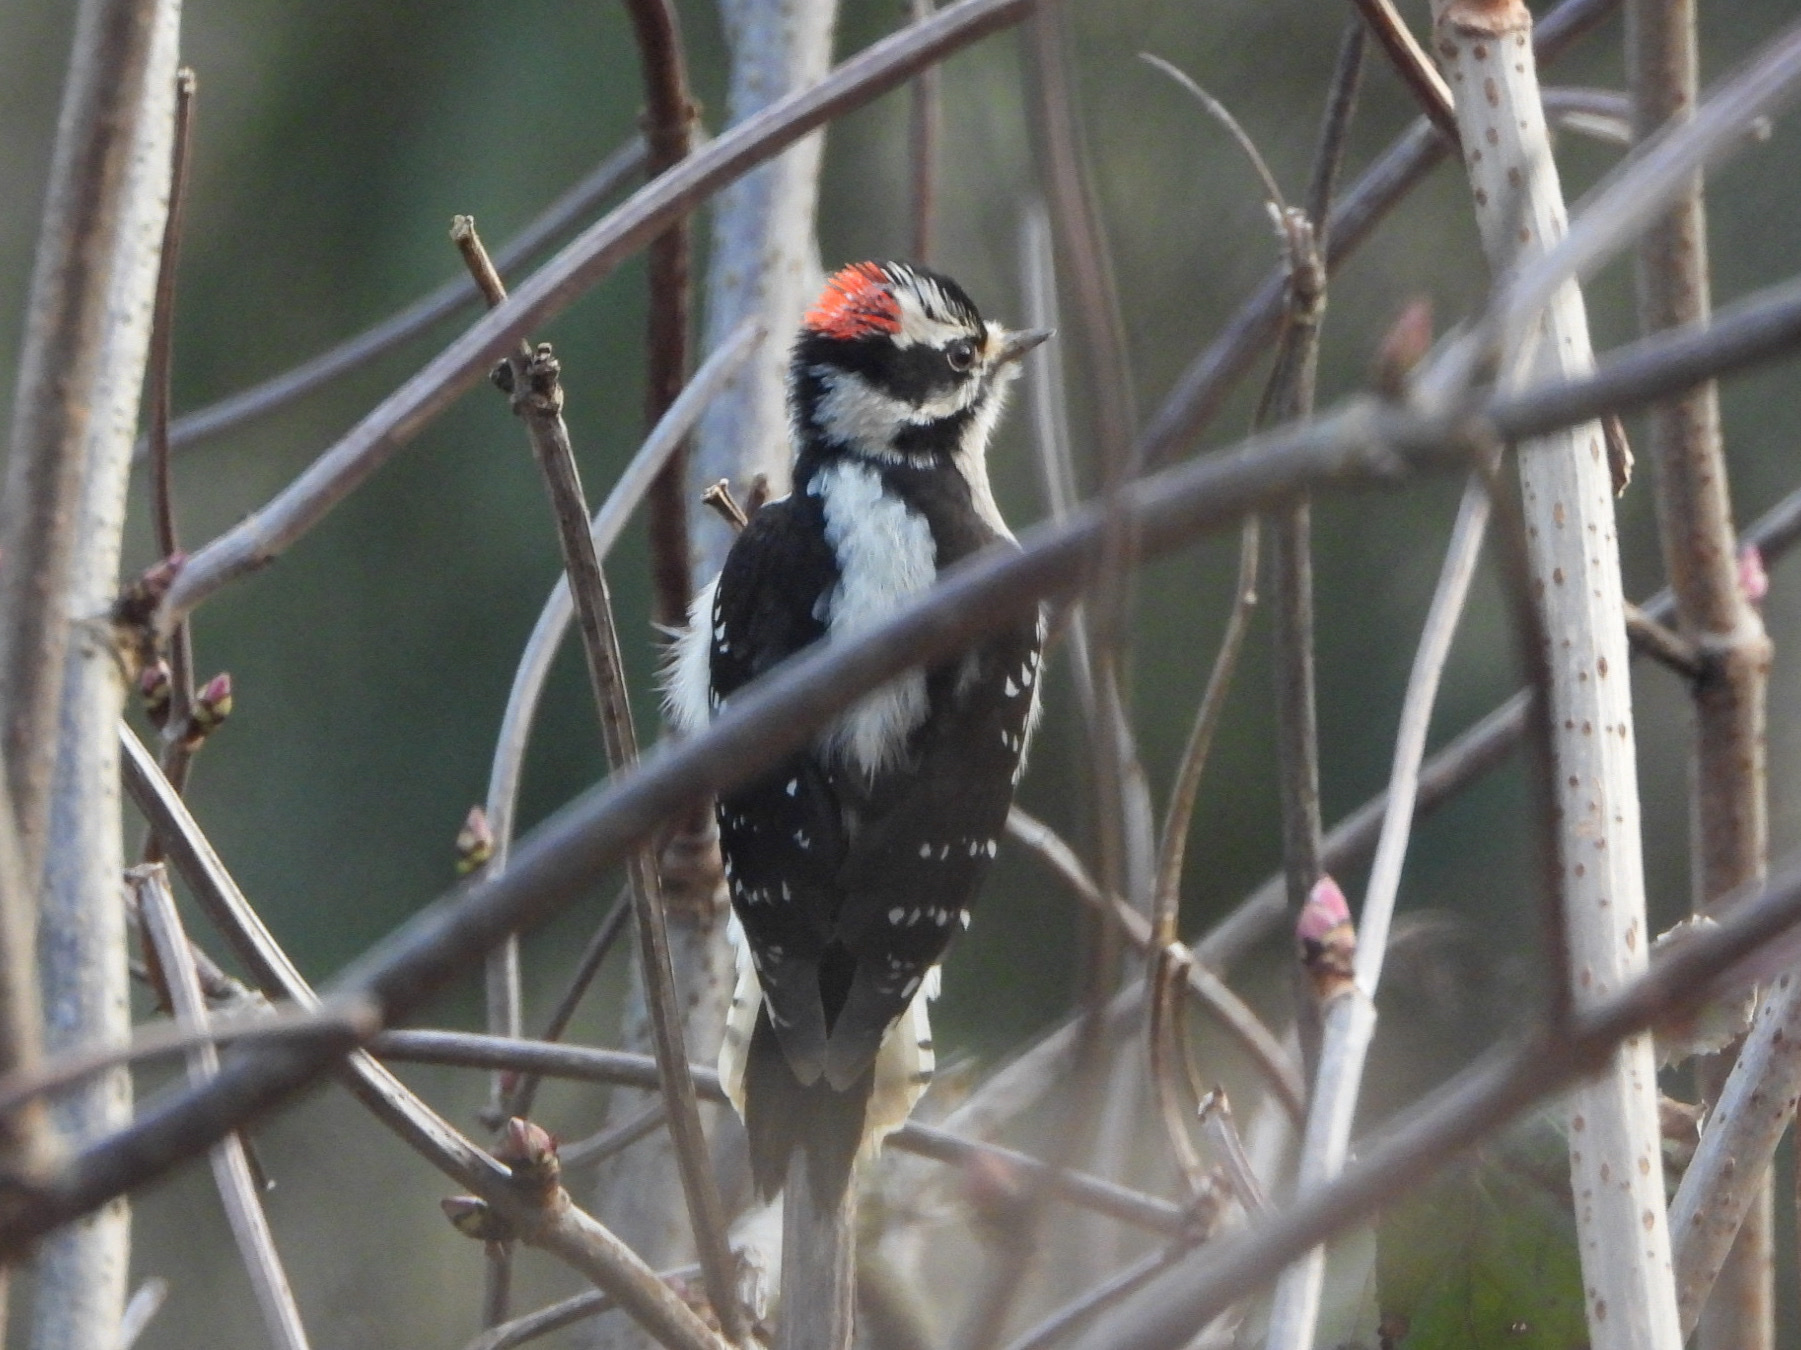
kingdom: Animalia
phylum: Chordata
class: Aves
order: Piciformes
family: Picidae
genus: Dryobates
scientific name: Dryobates pubescens
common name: Downy woodpecker
